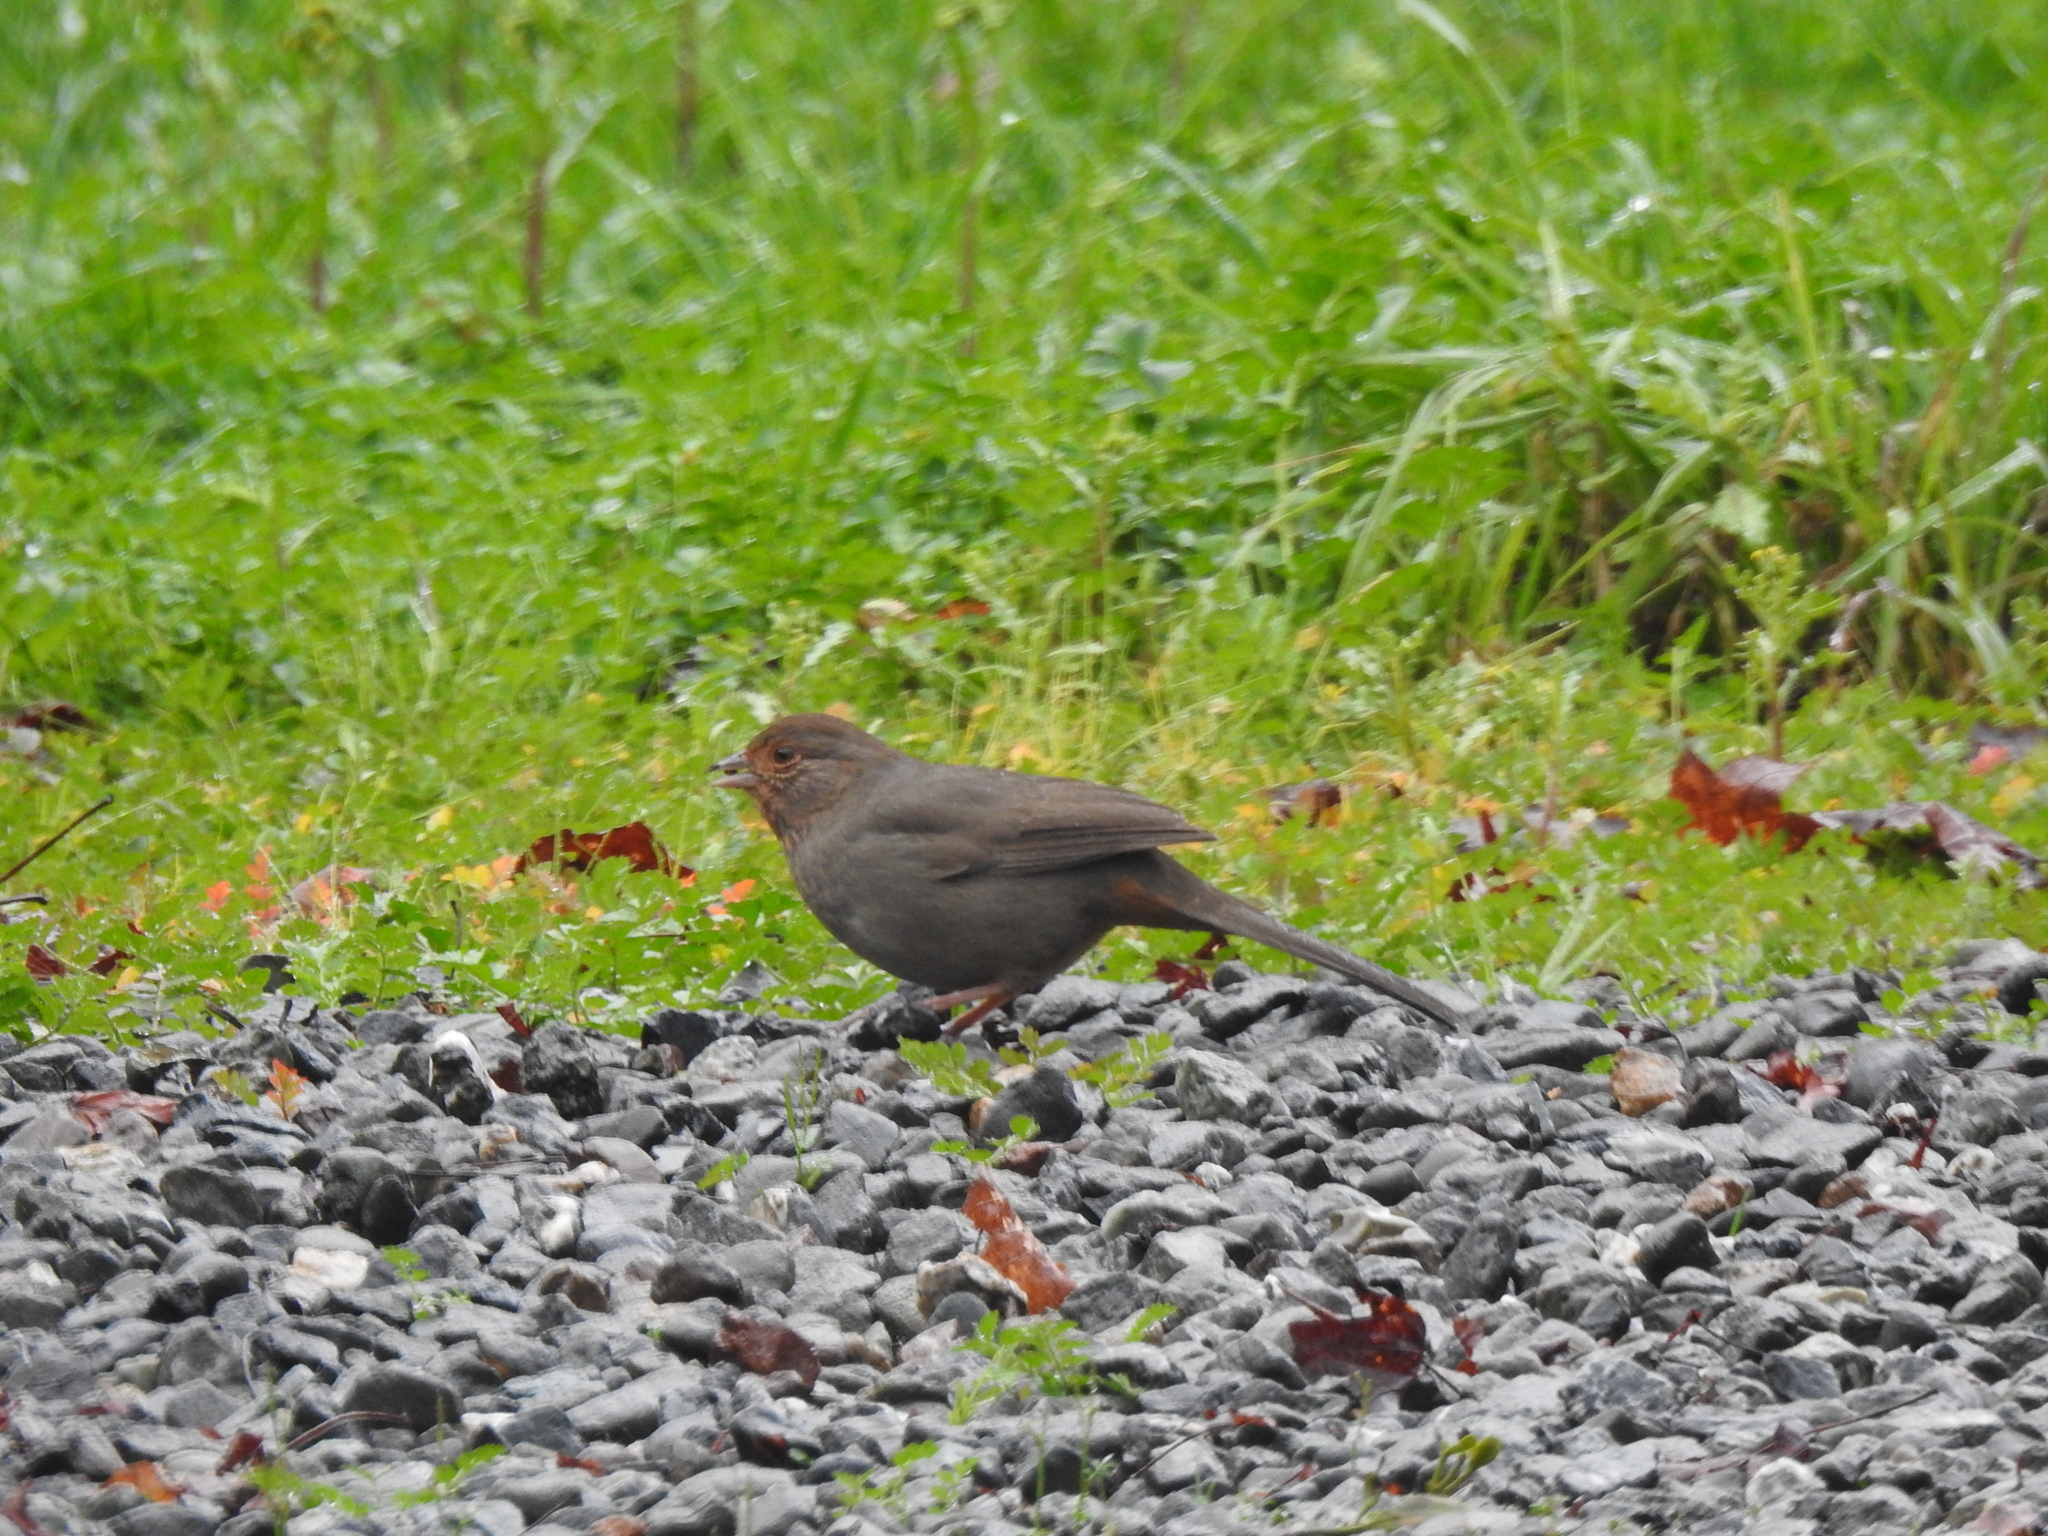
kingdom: Animalia
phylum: Chordata
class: Aves
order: Passeriformes
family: Passerellidae
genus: Melozone
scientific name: Melozone crissalis
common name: California towhee
